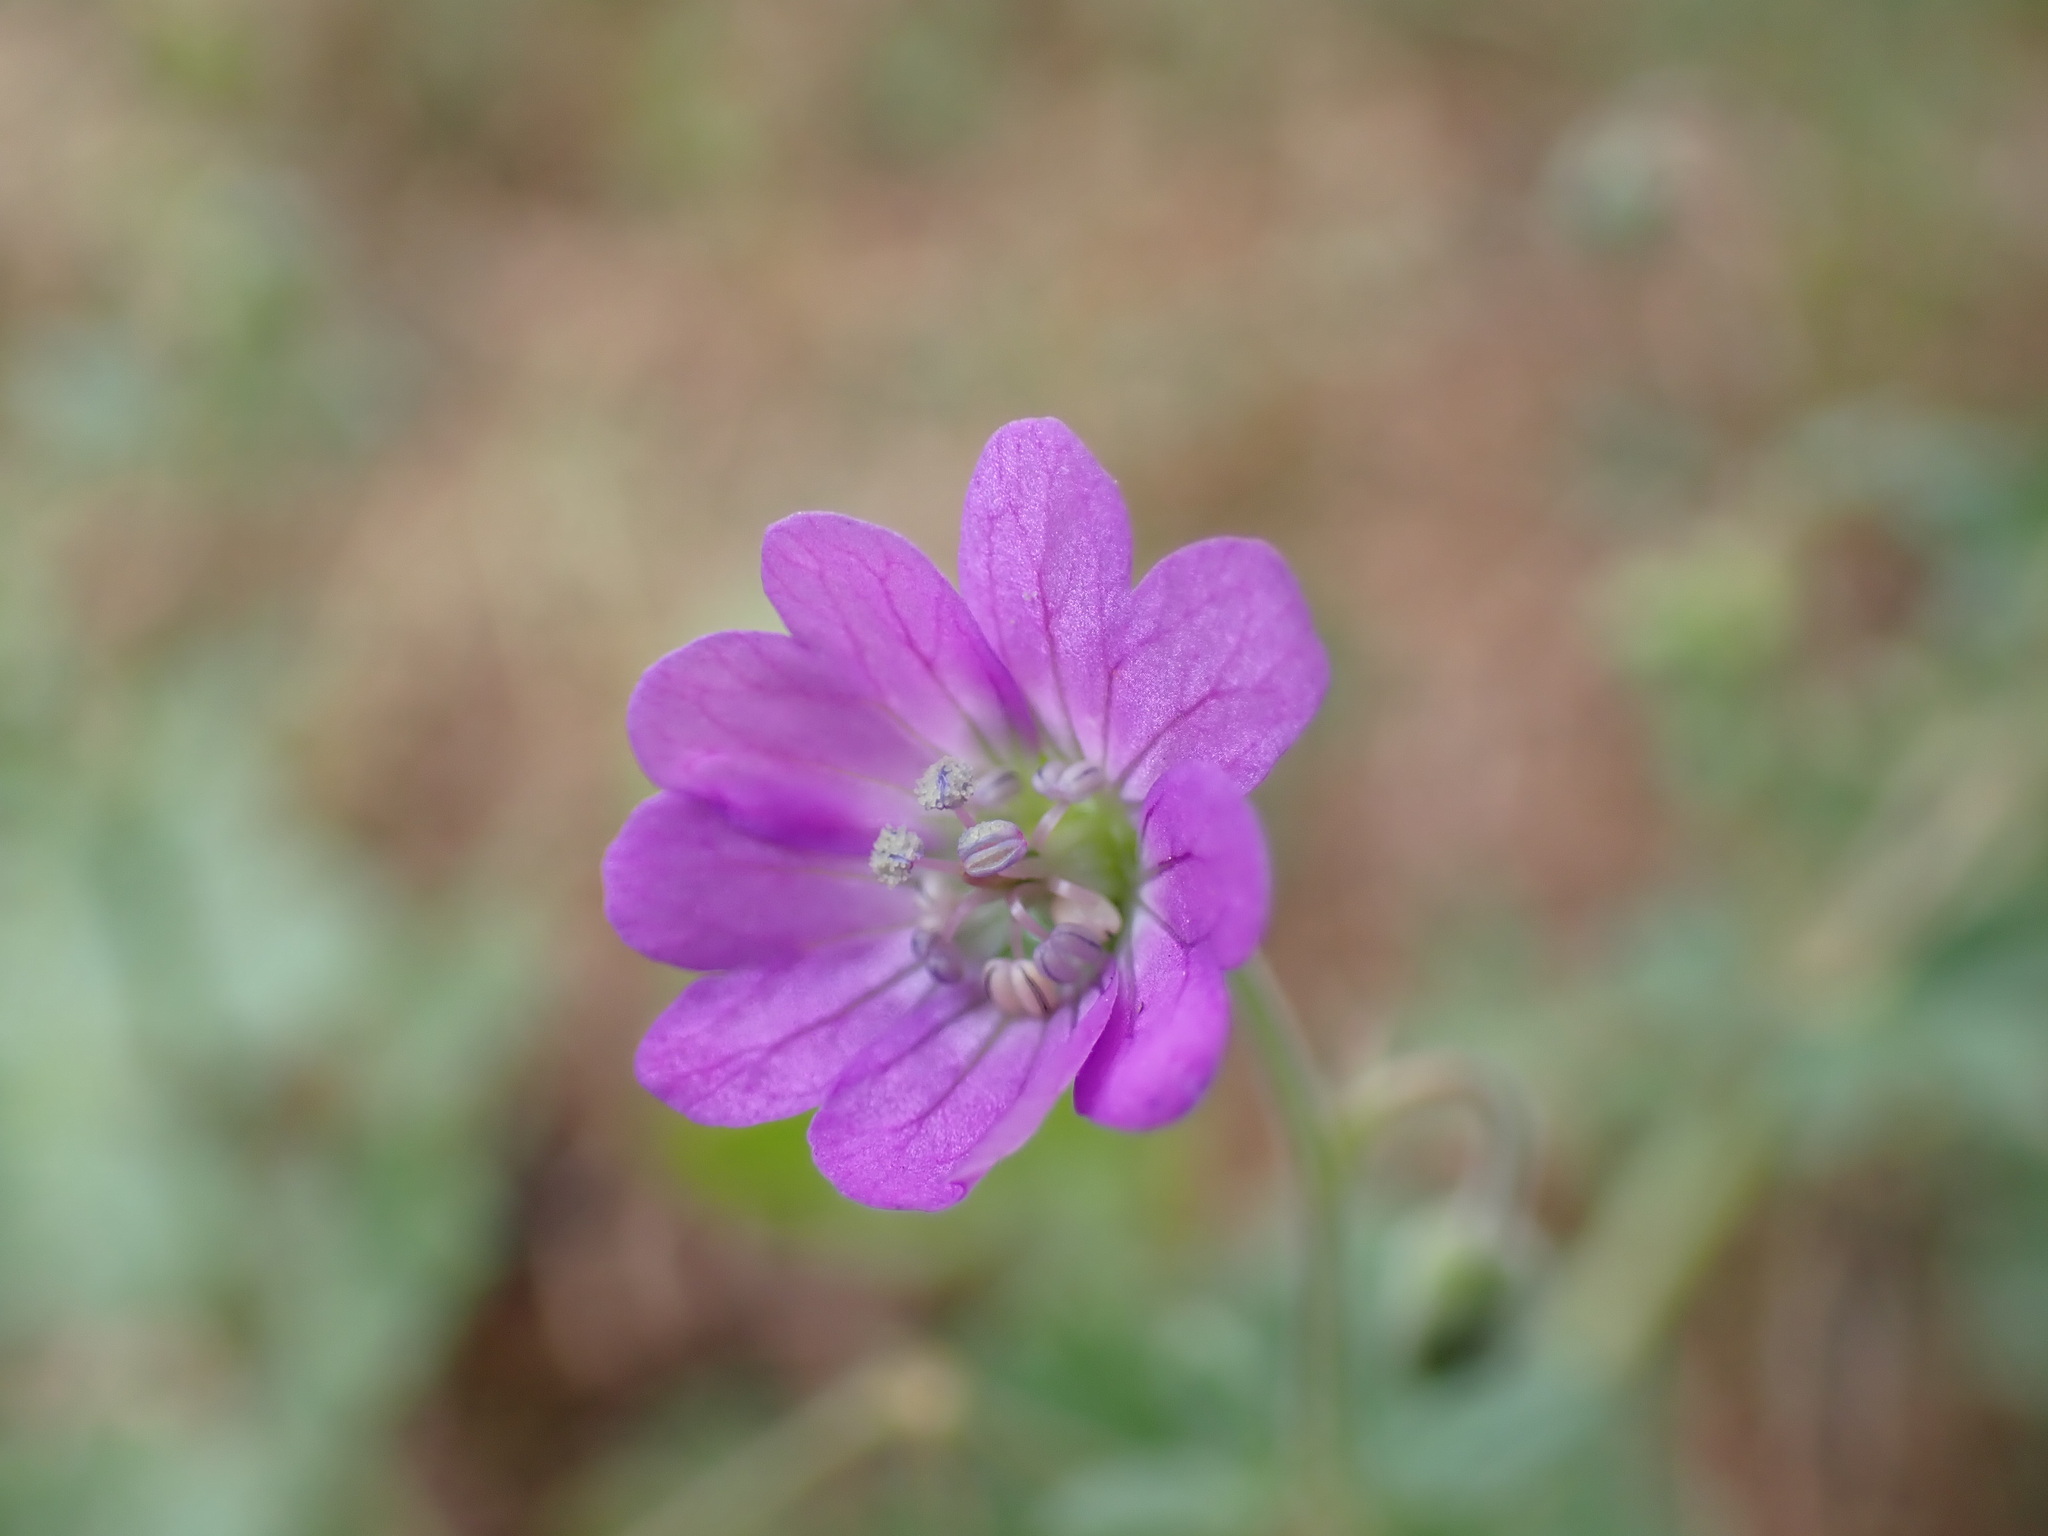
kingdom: Plantae
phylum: Tracheophyta
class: Magnoliopsida
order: Geraniales
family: Geraniaceae
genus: Geranium
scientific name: Geranium pyrenaicum
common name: Hedgerow crane's-bill
